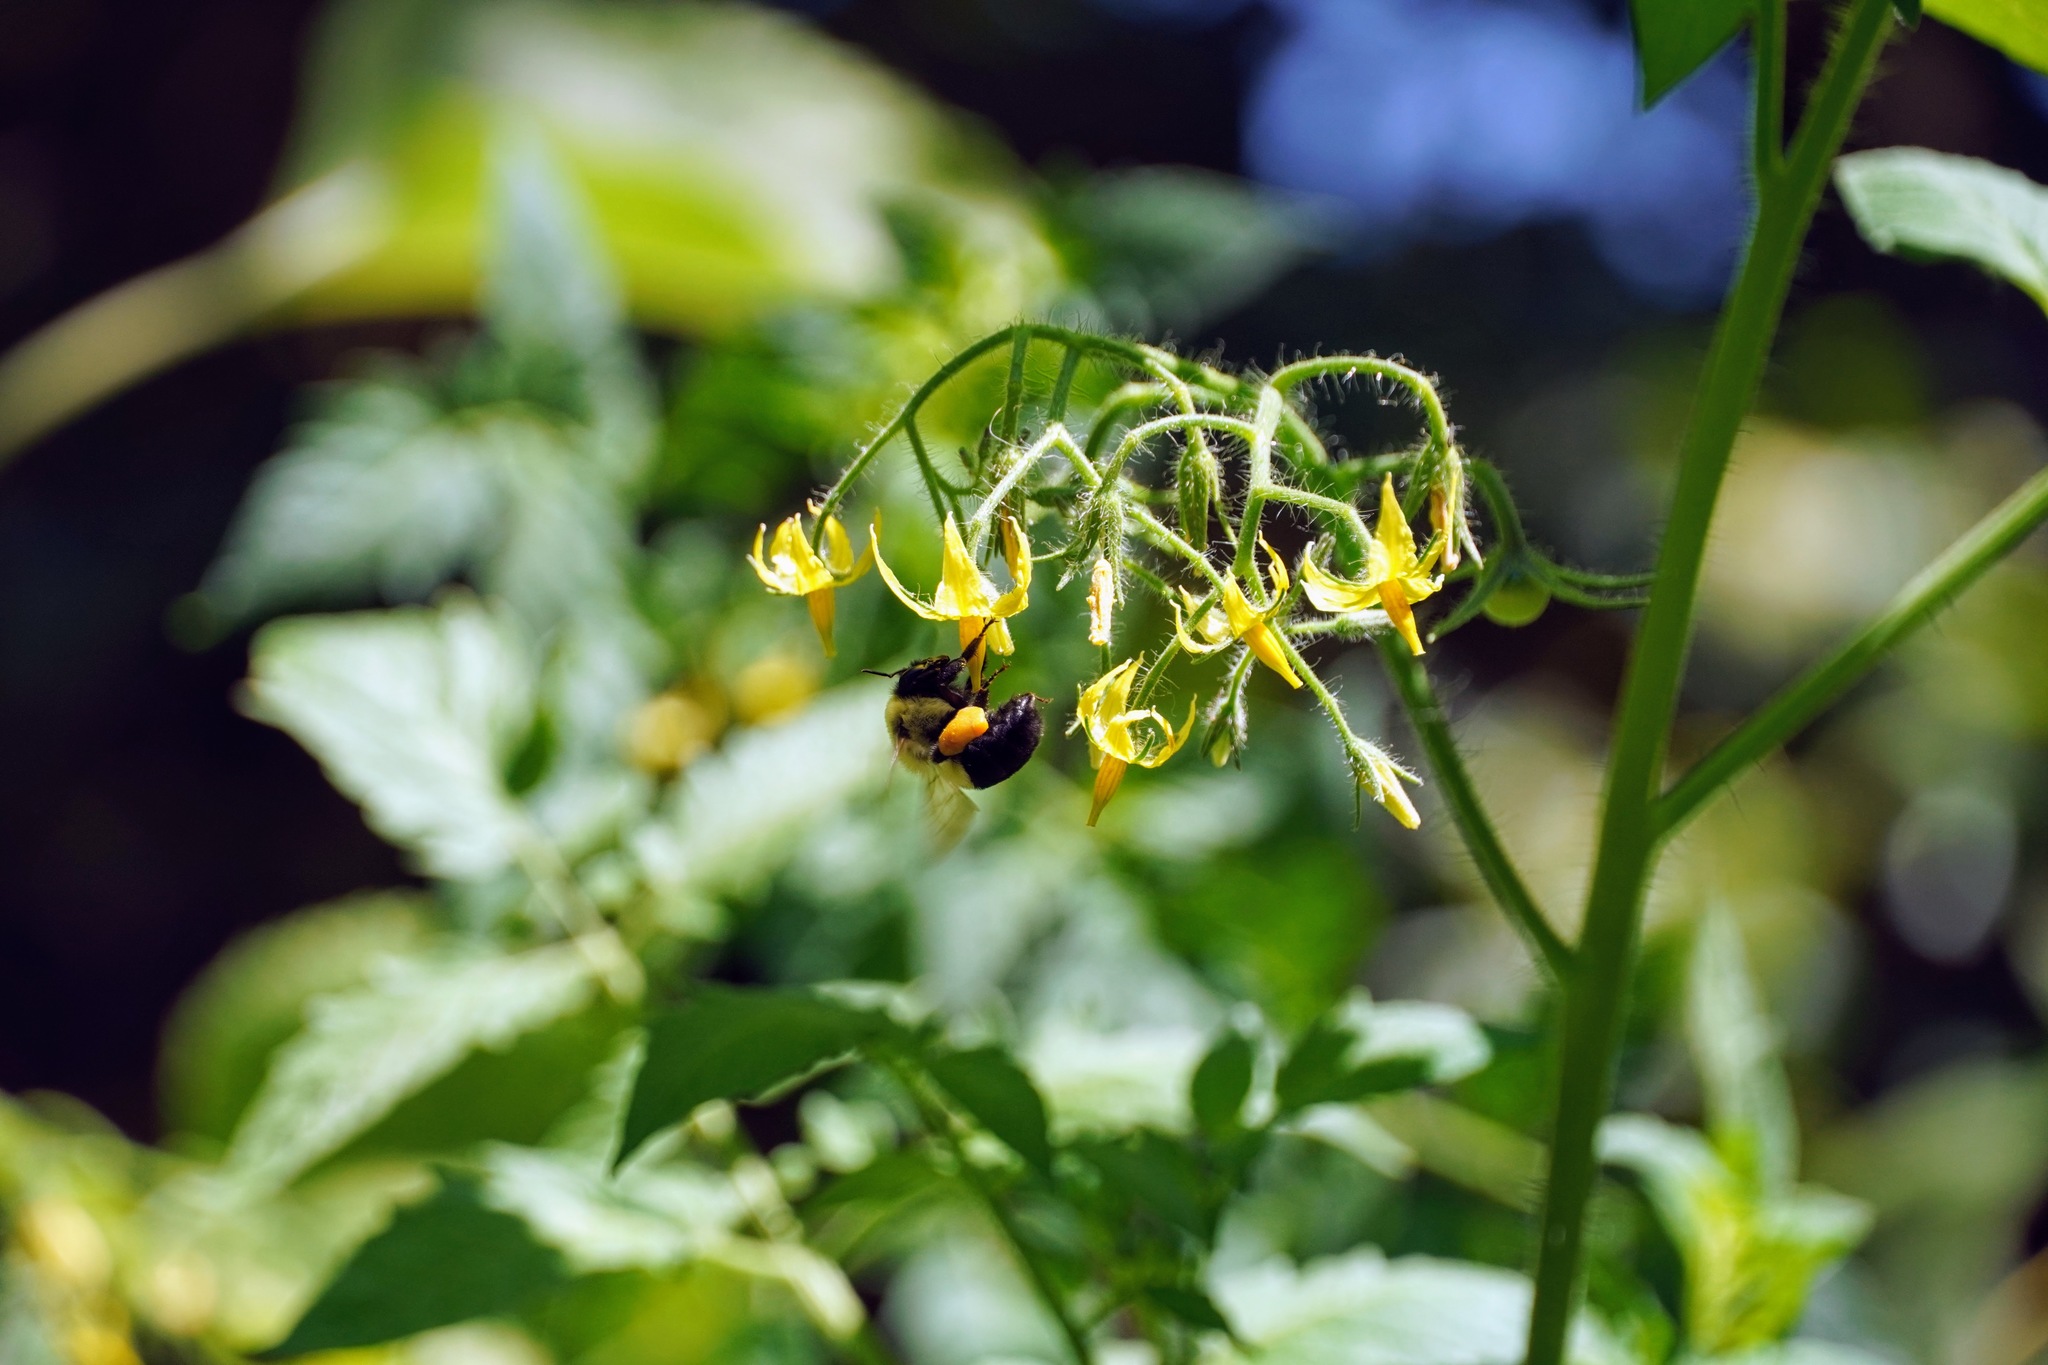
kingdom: Animalia
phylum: Arthropoda
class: Insecta
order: Hymenoptera
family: Apidae
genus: Bombus
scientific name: Bombus impatiens
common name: Common eastern bumble bee
